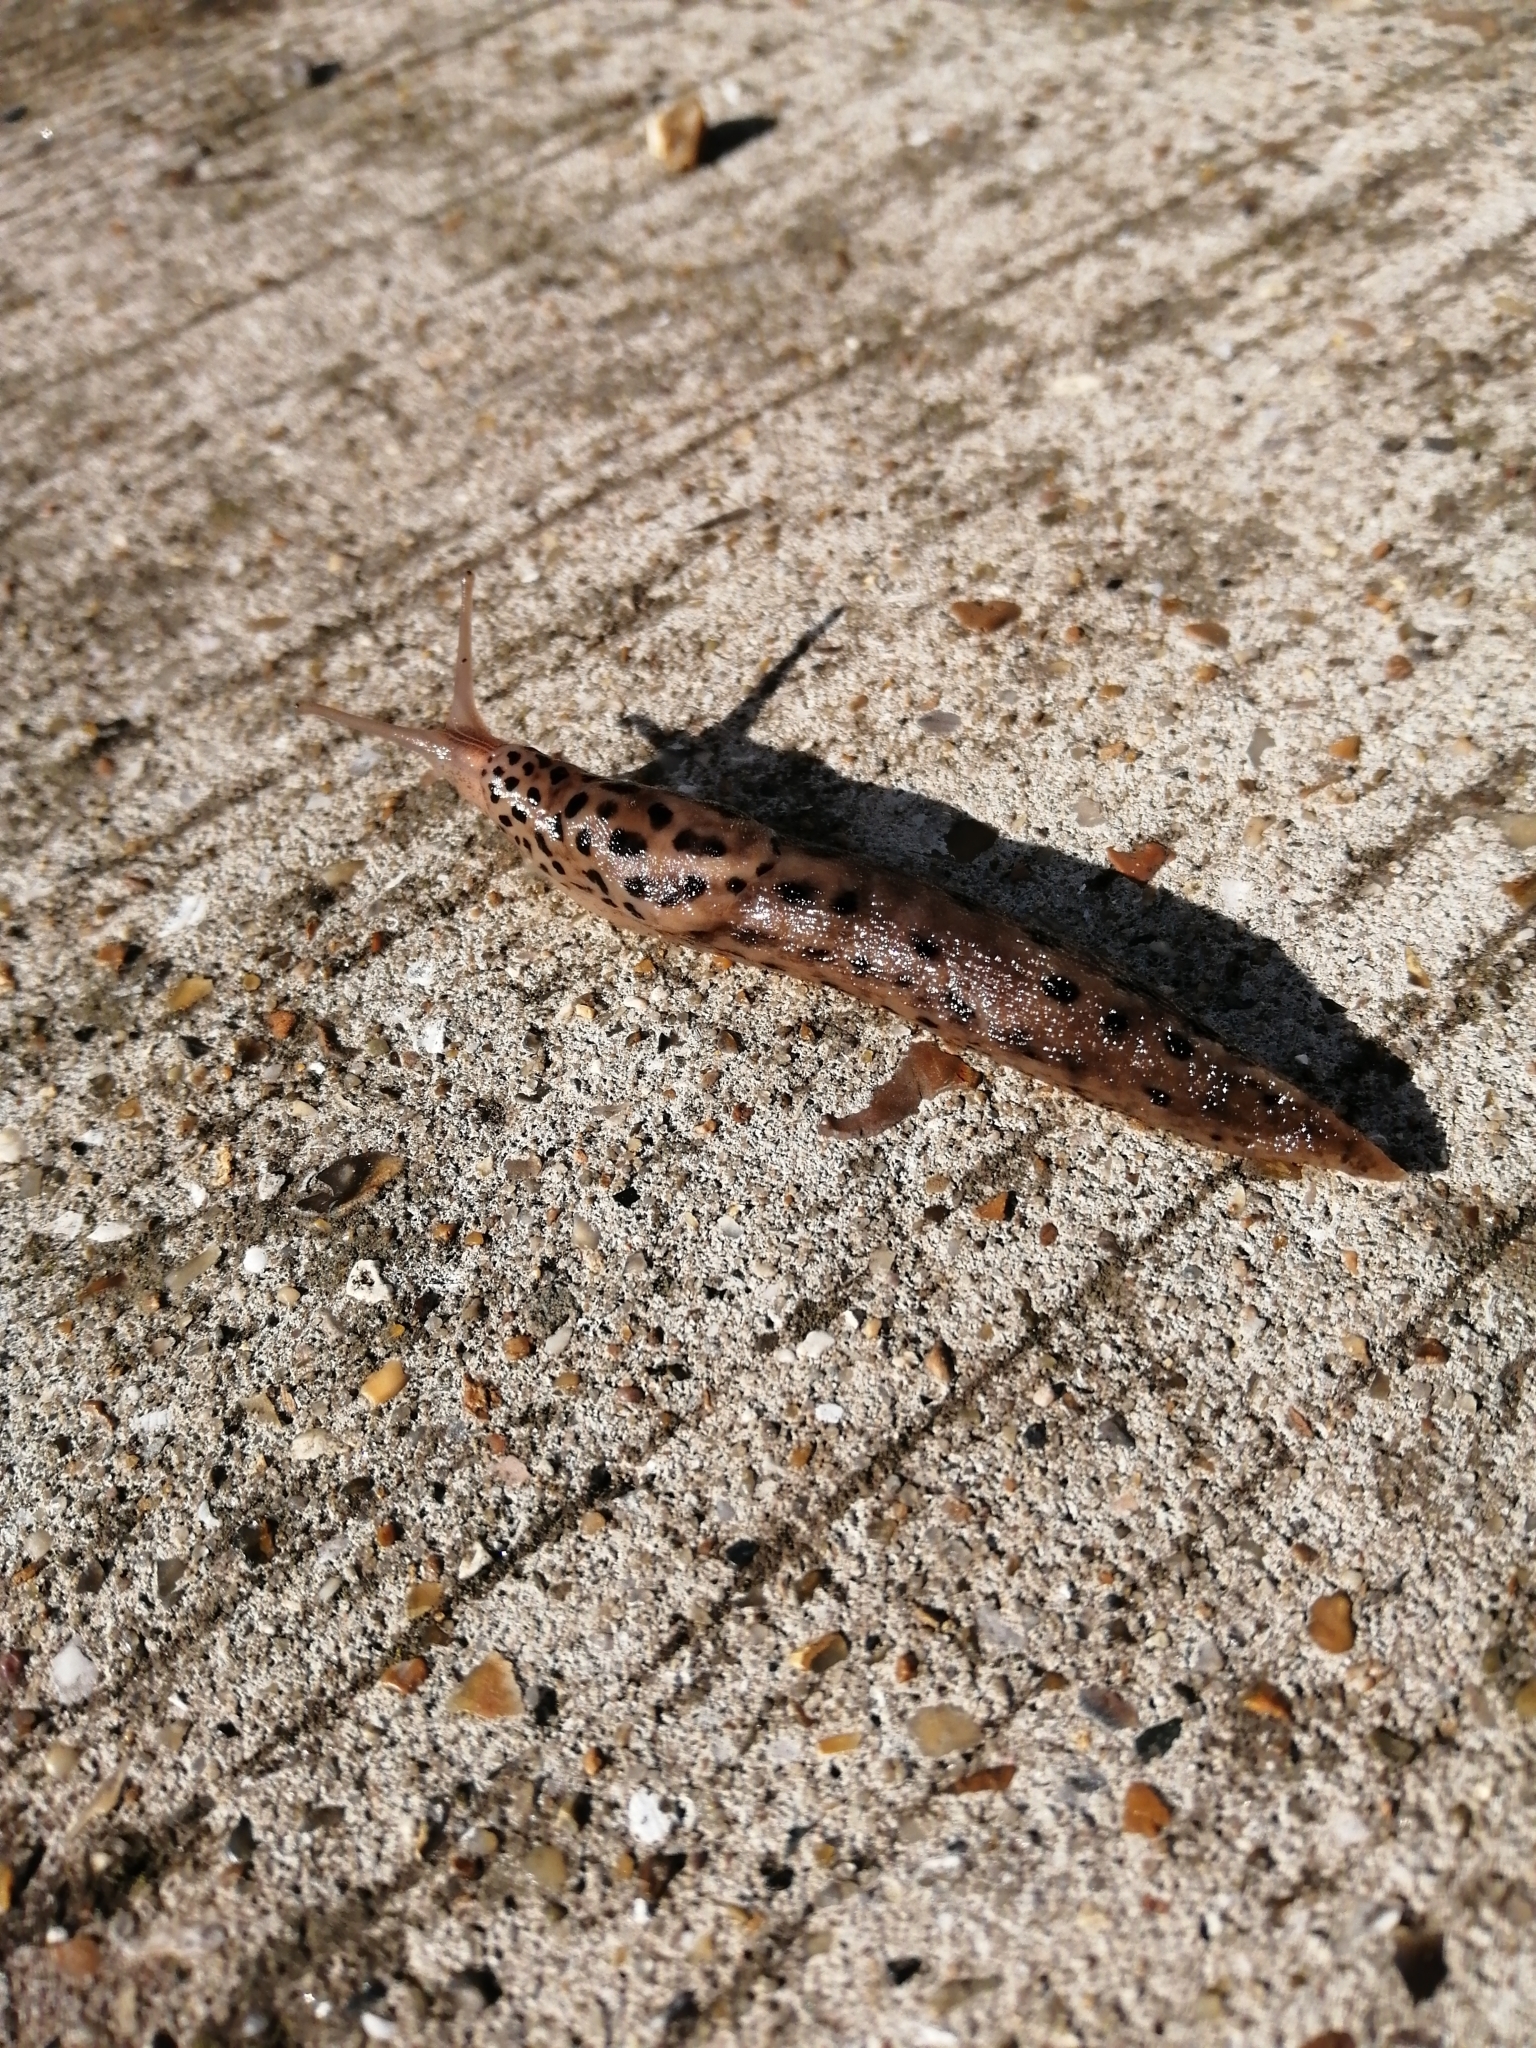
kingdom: Animalia
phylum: Mollusca
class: Gastropoda
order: Stylommatophora
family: Limacidae
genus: Limax
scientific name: Limax maximus
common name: Great grey slug
